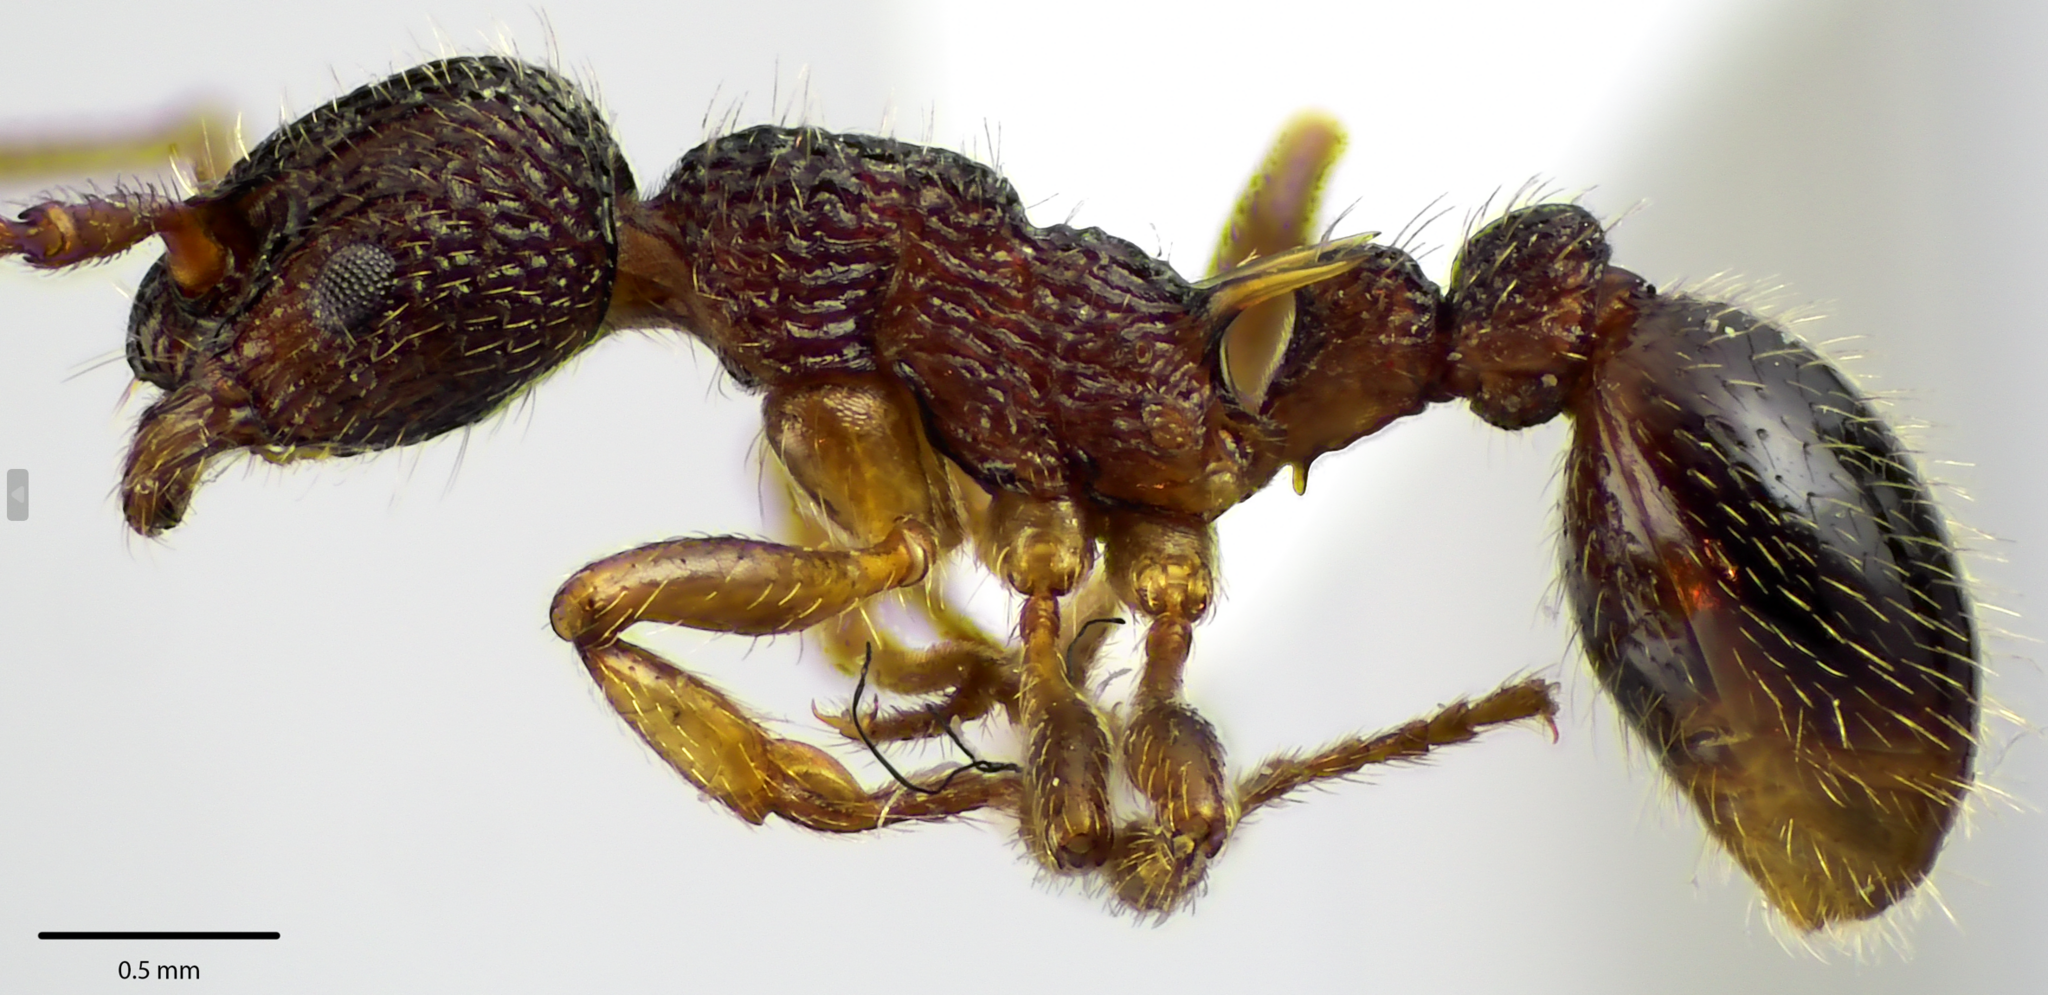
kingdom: Animalia
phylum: Arthropoda
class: Insecta
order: Hymenoptera
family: Formicidae
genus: Myrmica
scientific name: Myrmica punctiventris
